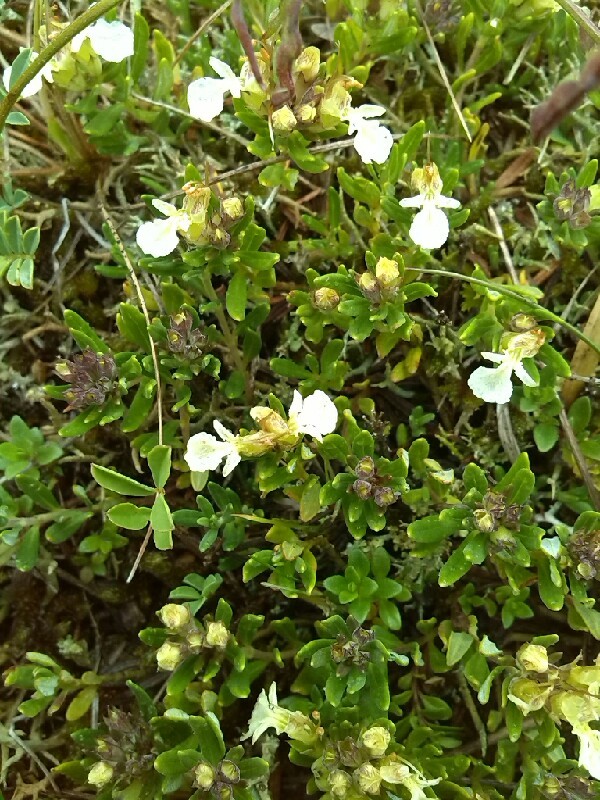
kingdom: Plantae
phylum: Tracheophyta
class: Magnoliopsida
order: Lamiales
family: Lamiaceae
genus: Teucrium
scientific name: Teucrium montanum
